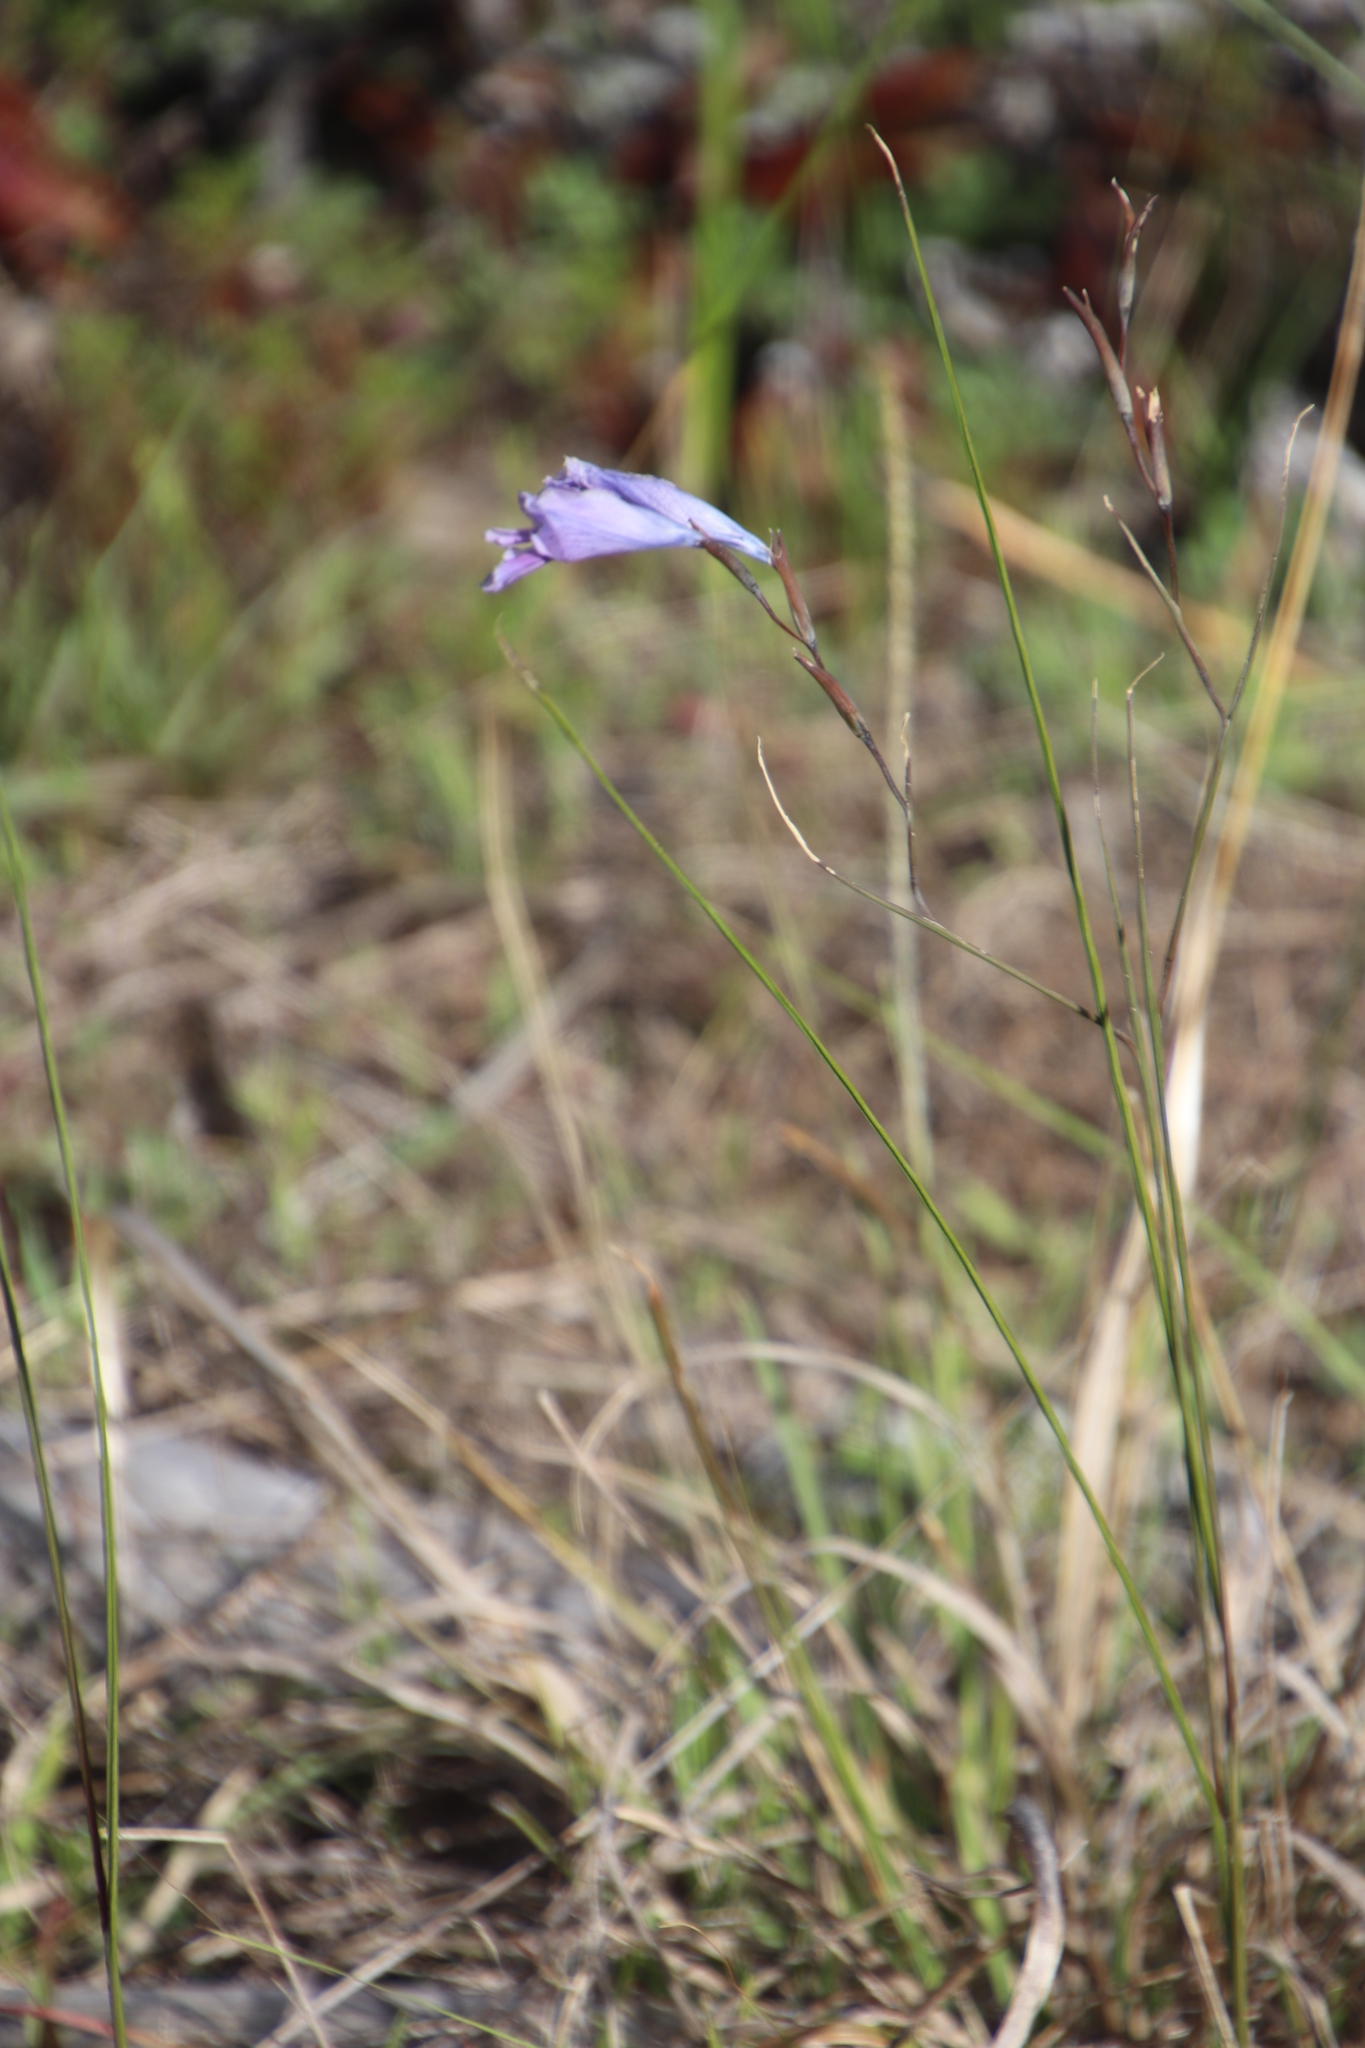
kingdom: Plantae
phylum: Tracheophyta
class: Liliopsida
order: Asparagales
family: Iridaceae
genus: Gladiolus
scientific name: Gladiolus gracilis
